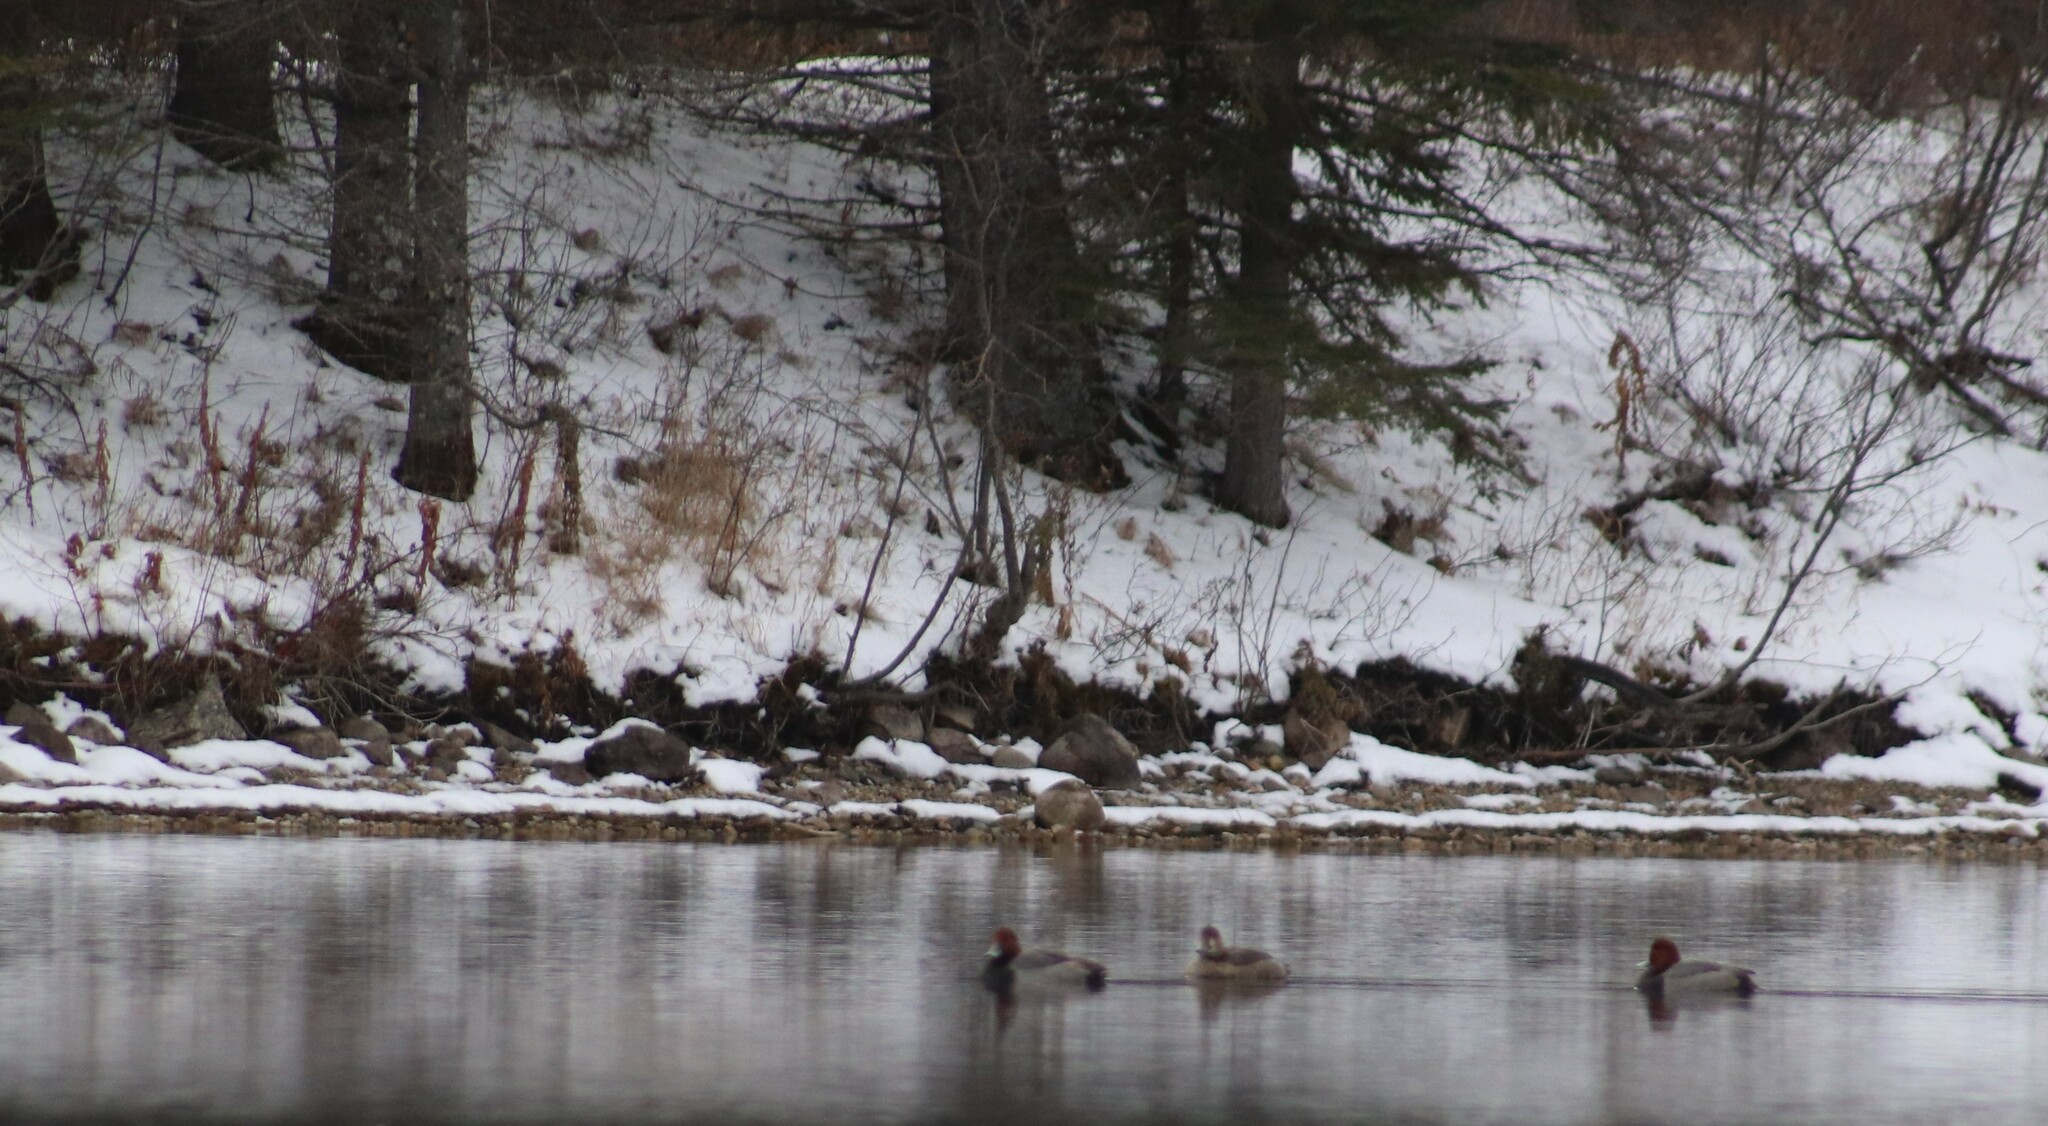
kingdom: Animalia
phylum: Chordata
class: Aves
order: Anseriformes
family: Anatidae
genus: Aythya
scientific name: Aythya americana
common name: Redhead
